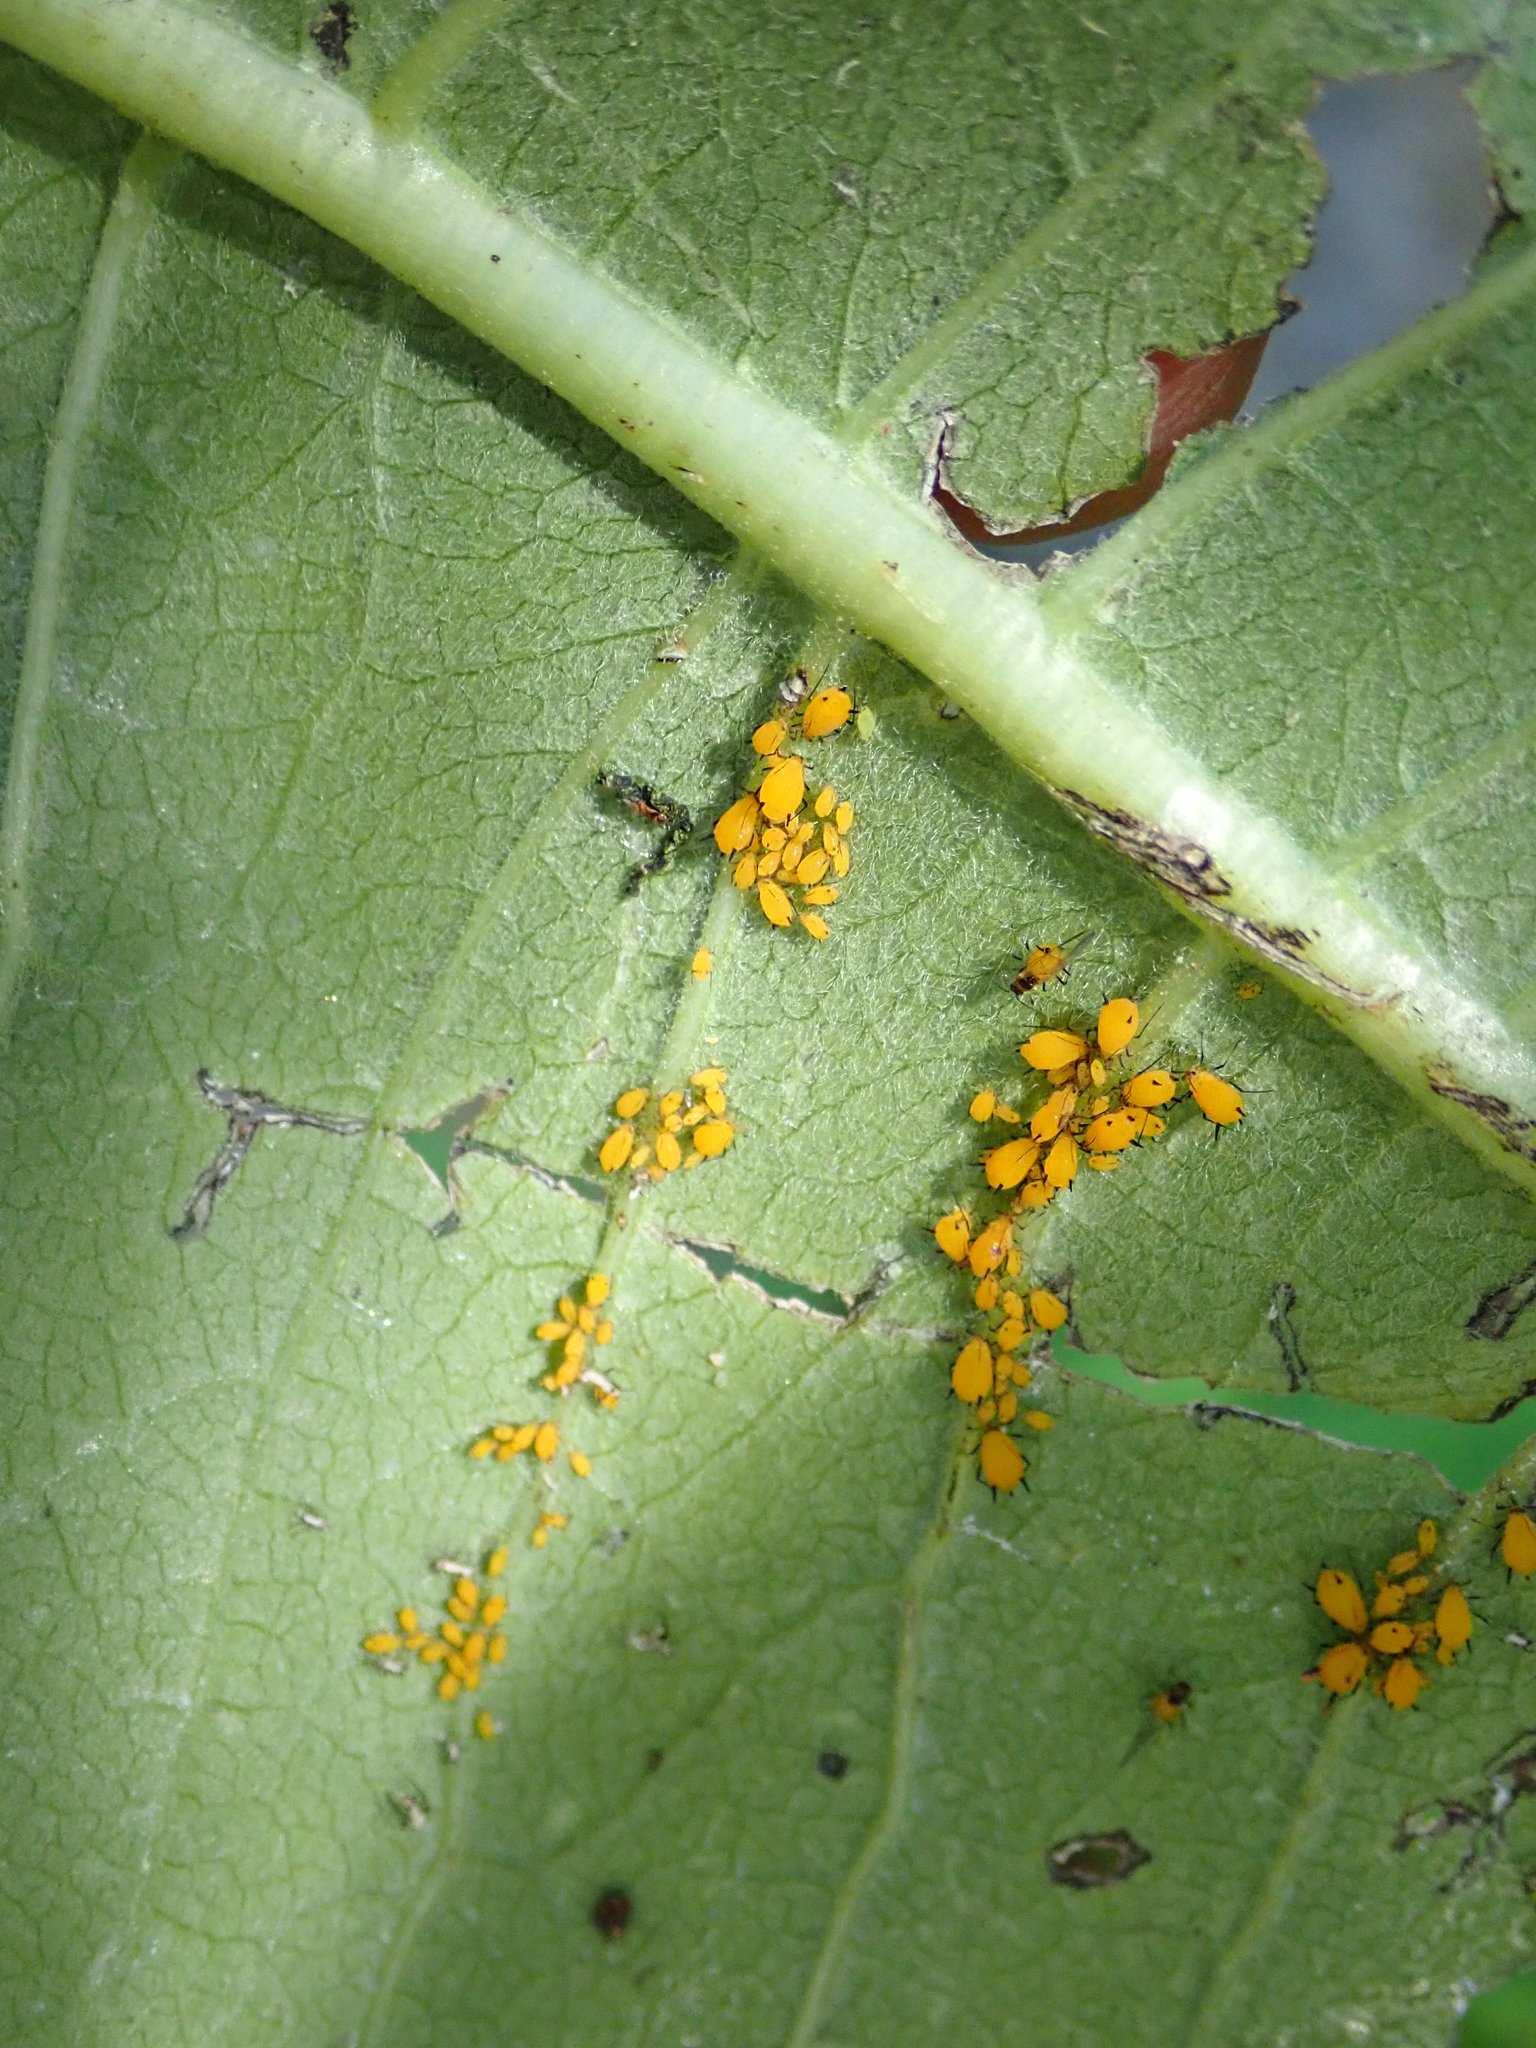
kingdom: Animalia
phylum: Arthropoda
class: Insecta
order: Hemiptera
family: Aphididae
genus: Aphis
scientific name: Aphis nerii
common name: Oleander aphid
